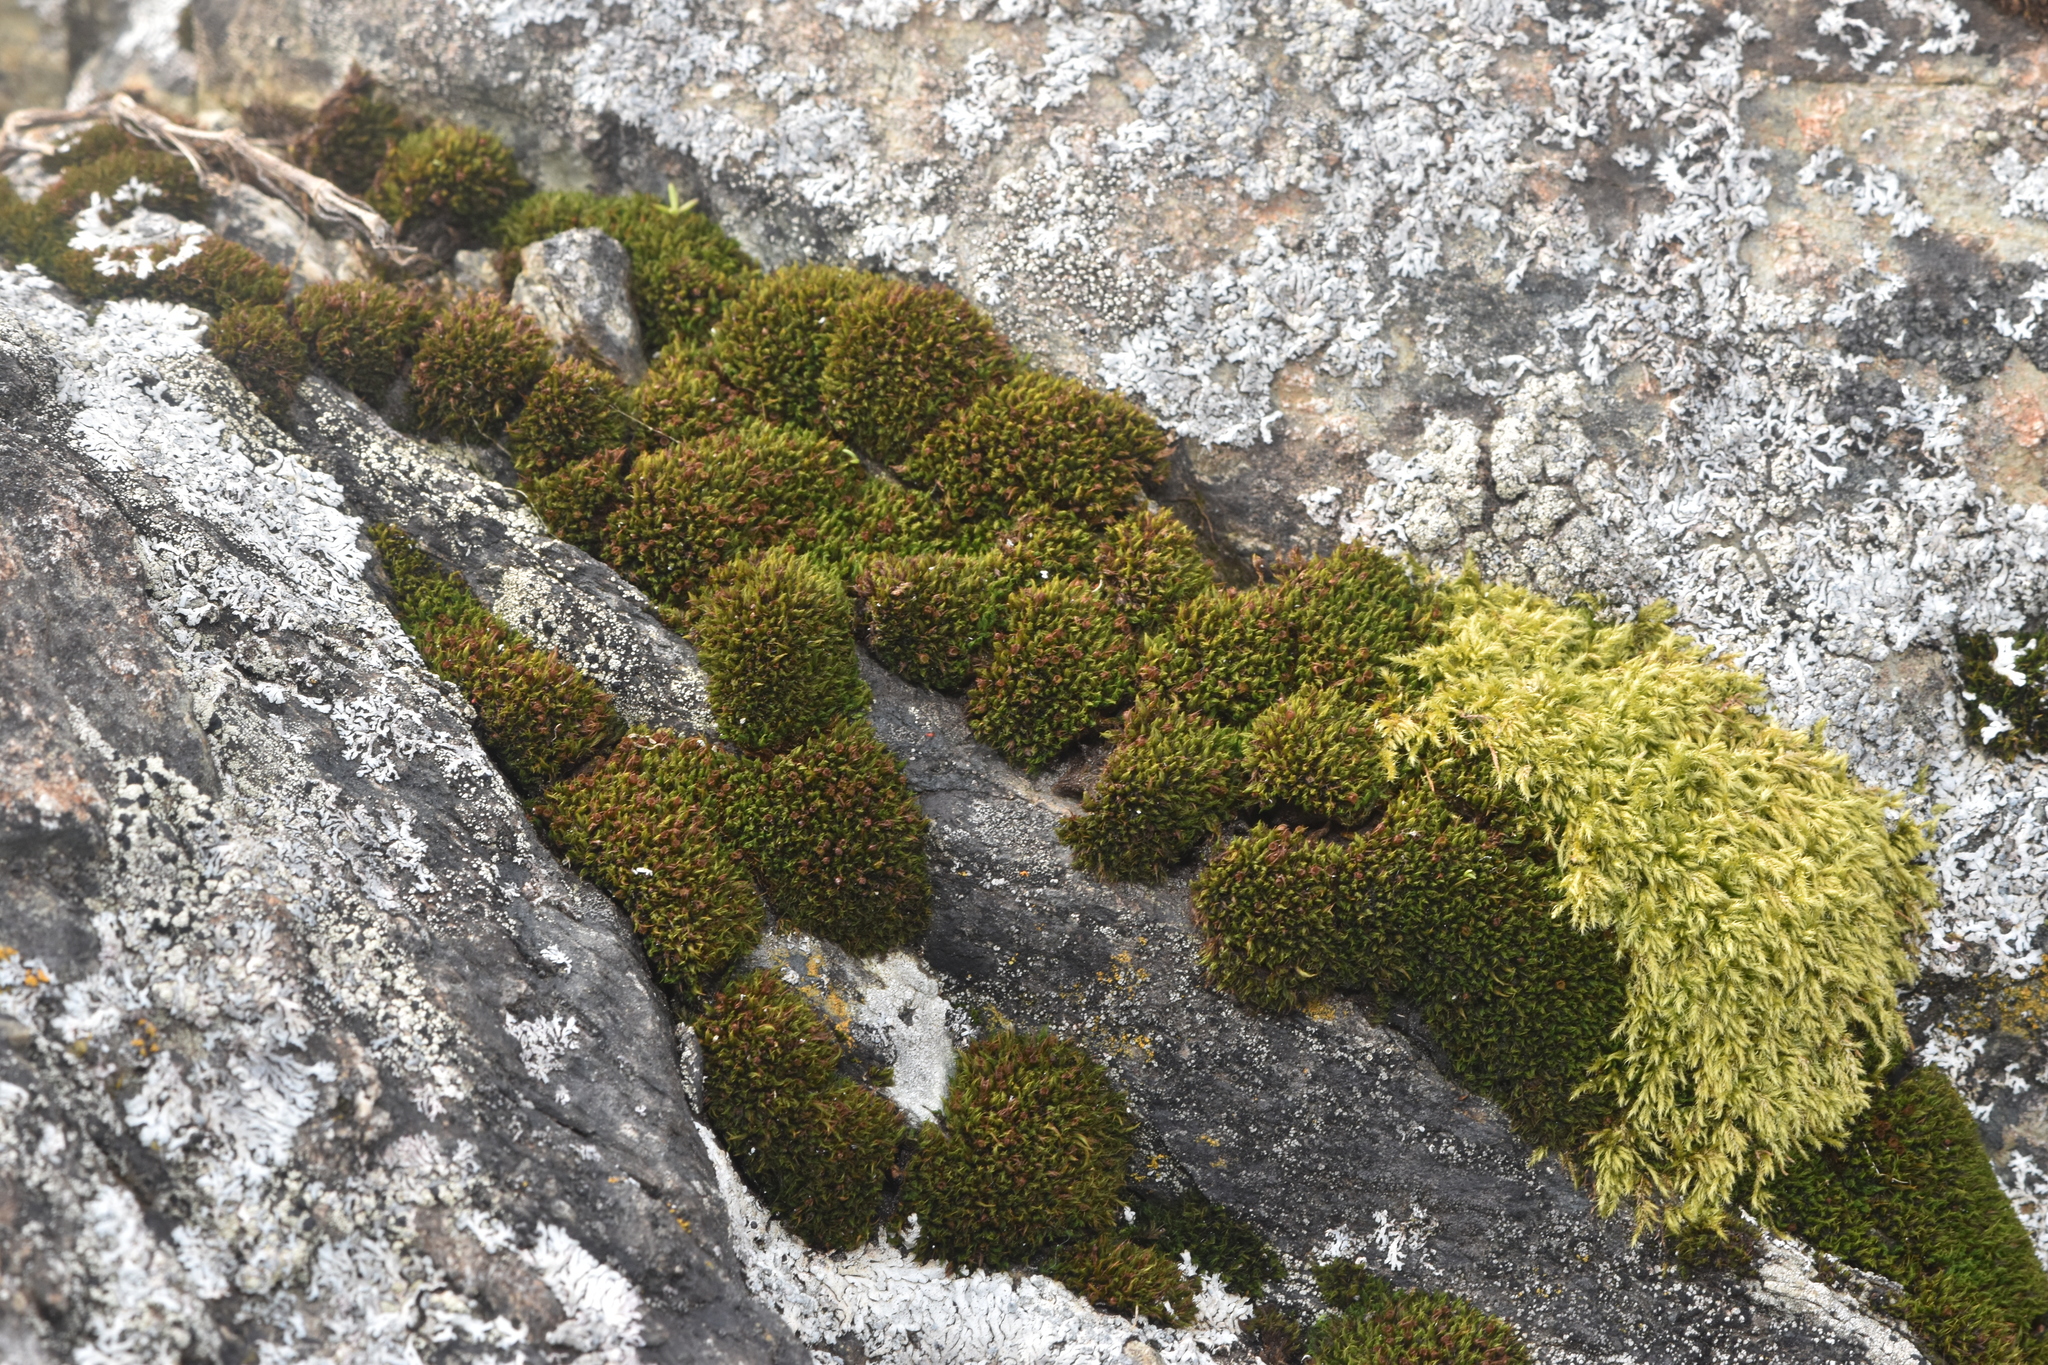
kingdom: Plantae
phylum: Bryophyta
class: Bryopsida
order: Grimmiales
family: Grimmiaceae
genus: Schistidium
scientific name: Schistidium maritimum
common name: Seaside bloom moss
